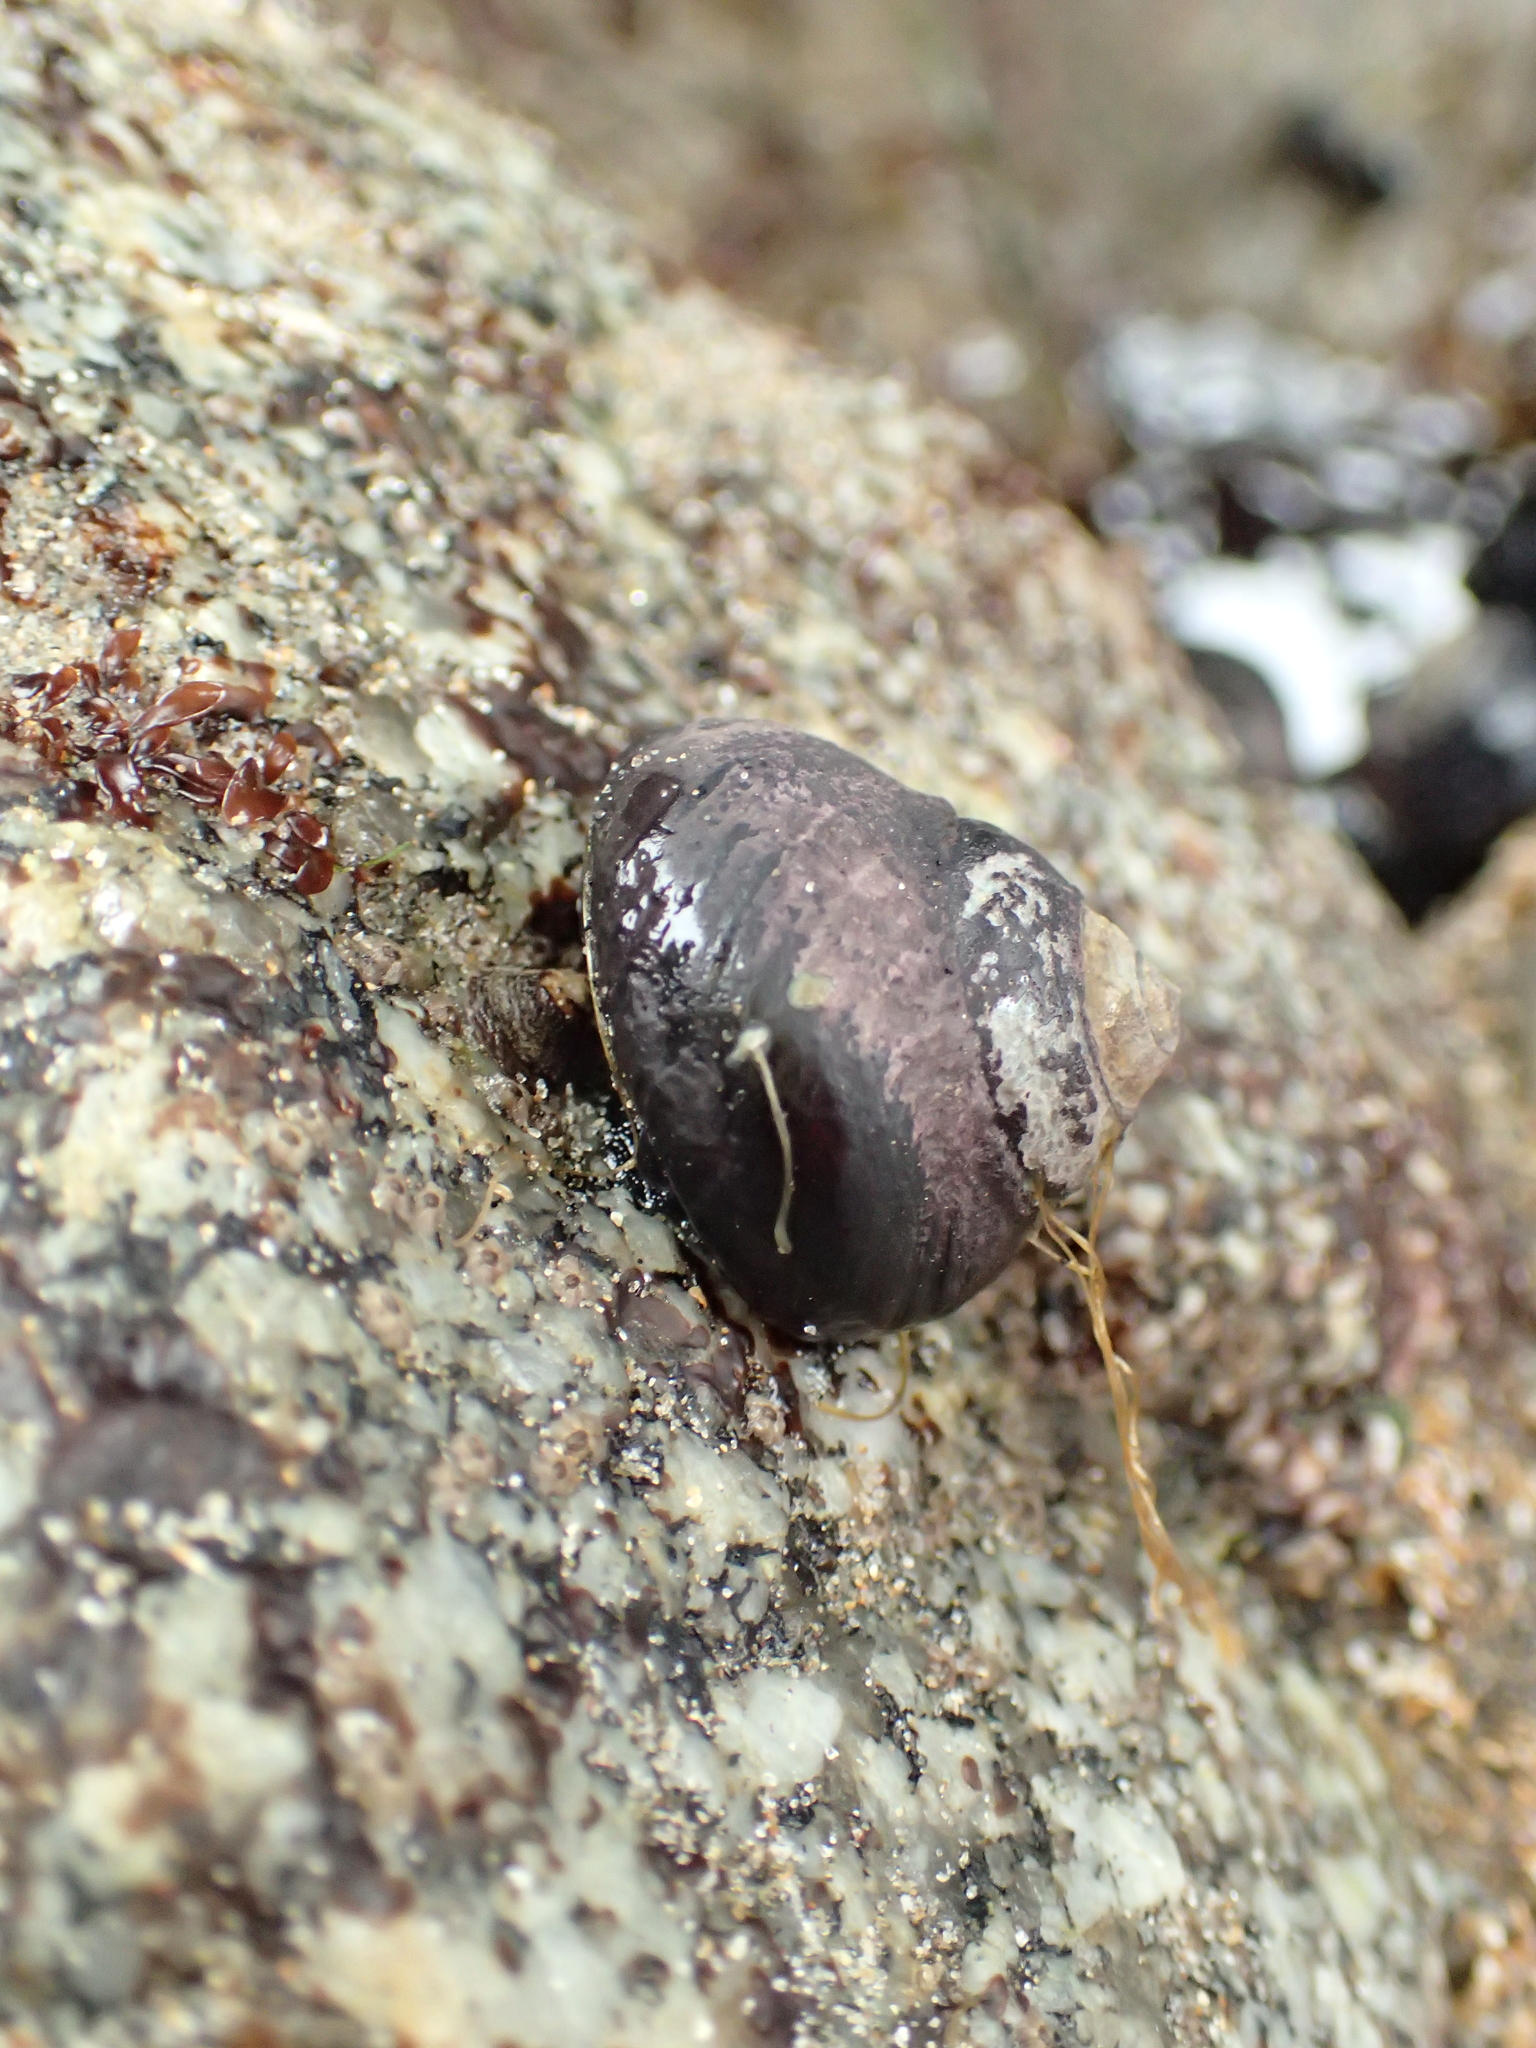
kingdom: Animalia
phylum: Mollusca
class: Gastropoda
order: Trochida
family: Tegulidae
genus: Tegula
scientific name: Tegula funebralis
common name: Black tegula
